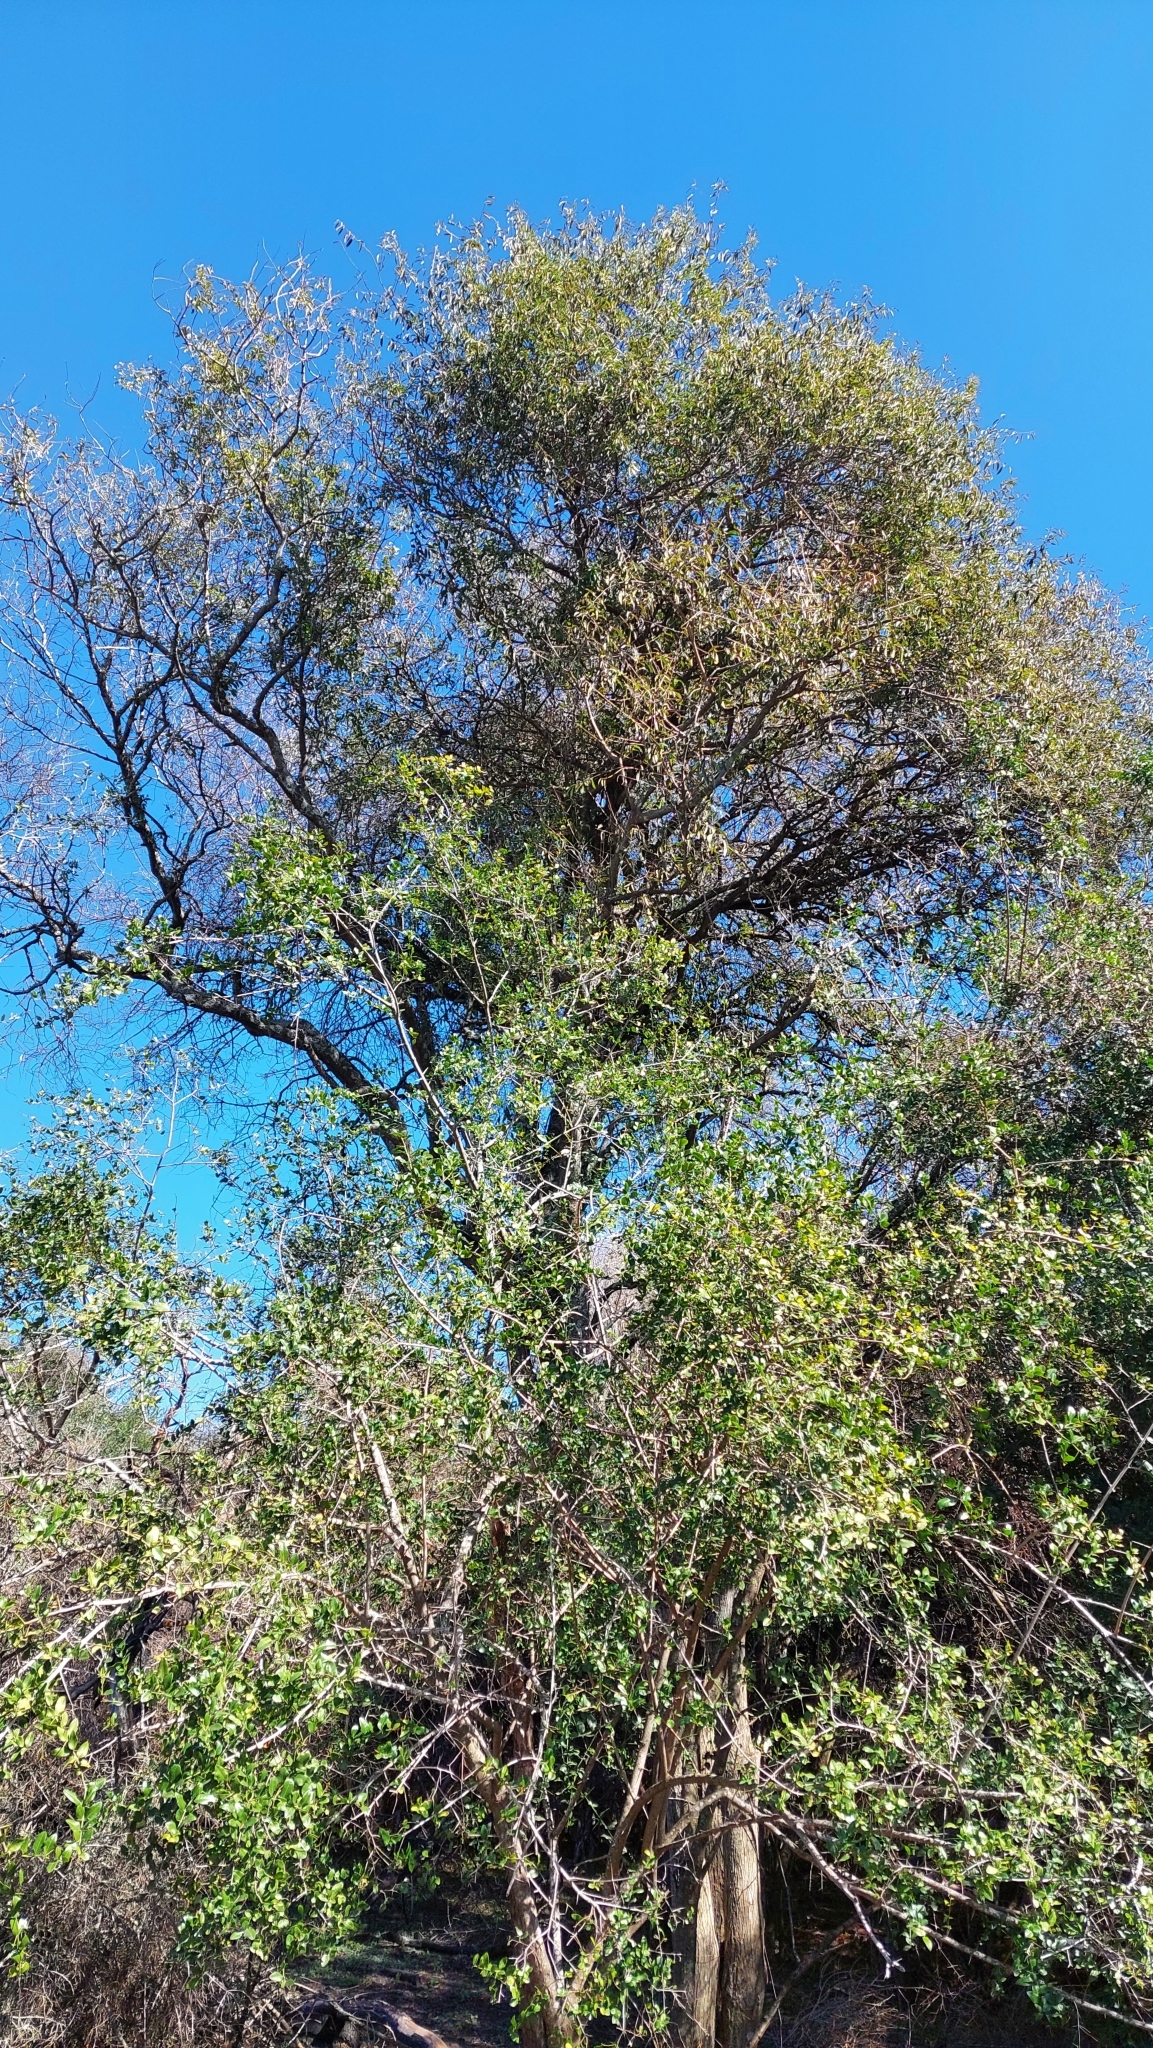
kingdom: Plantae
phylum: Tracheophyta
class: Magnoliopsida
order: Rosales
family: Rhamnaceae
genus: Scutia
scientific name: Scutia buxifolia
